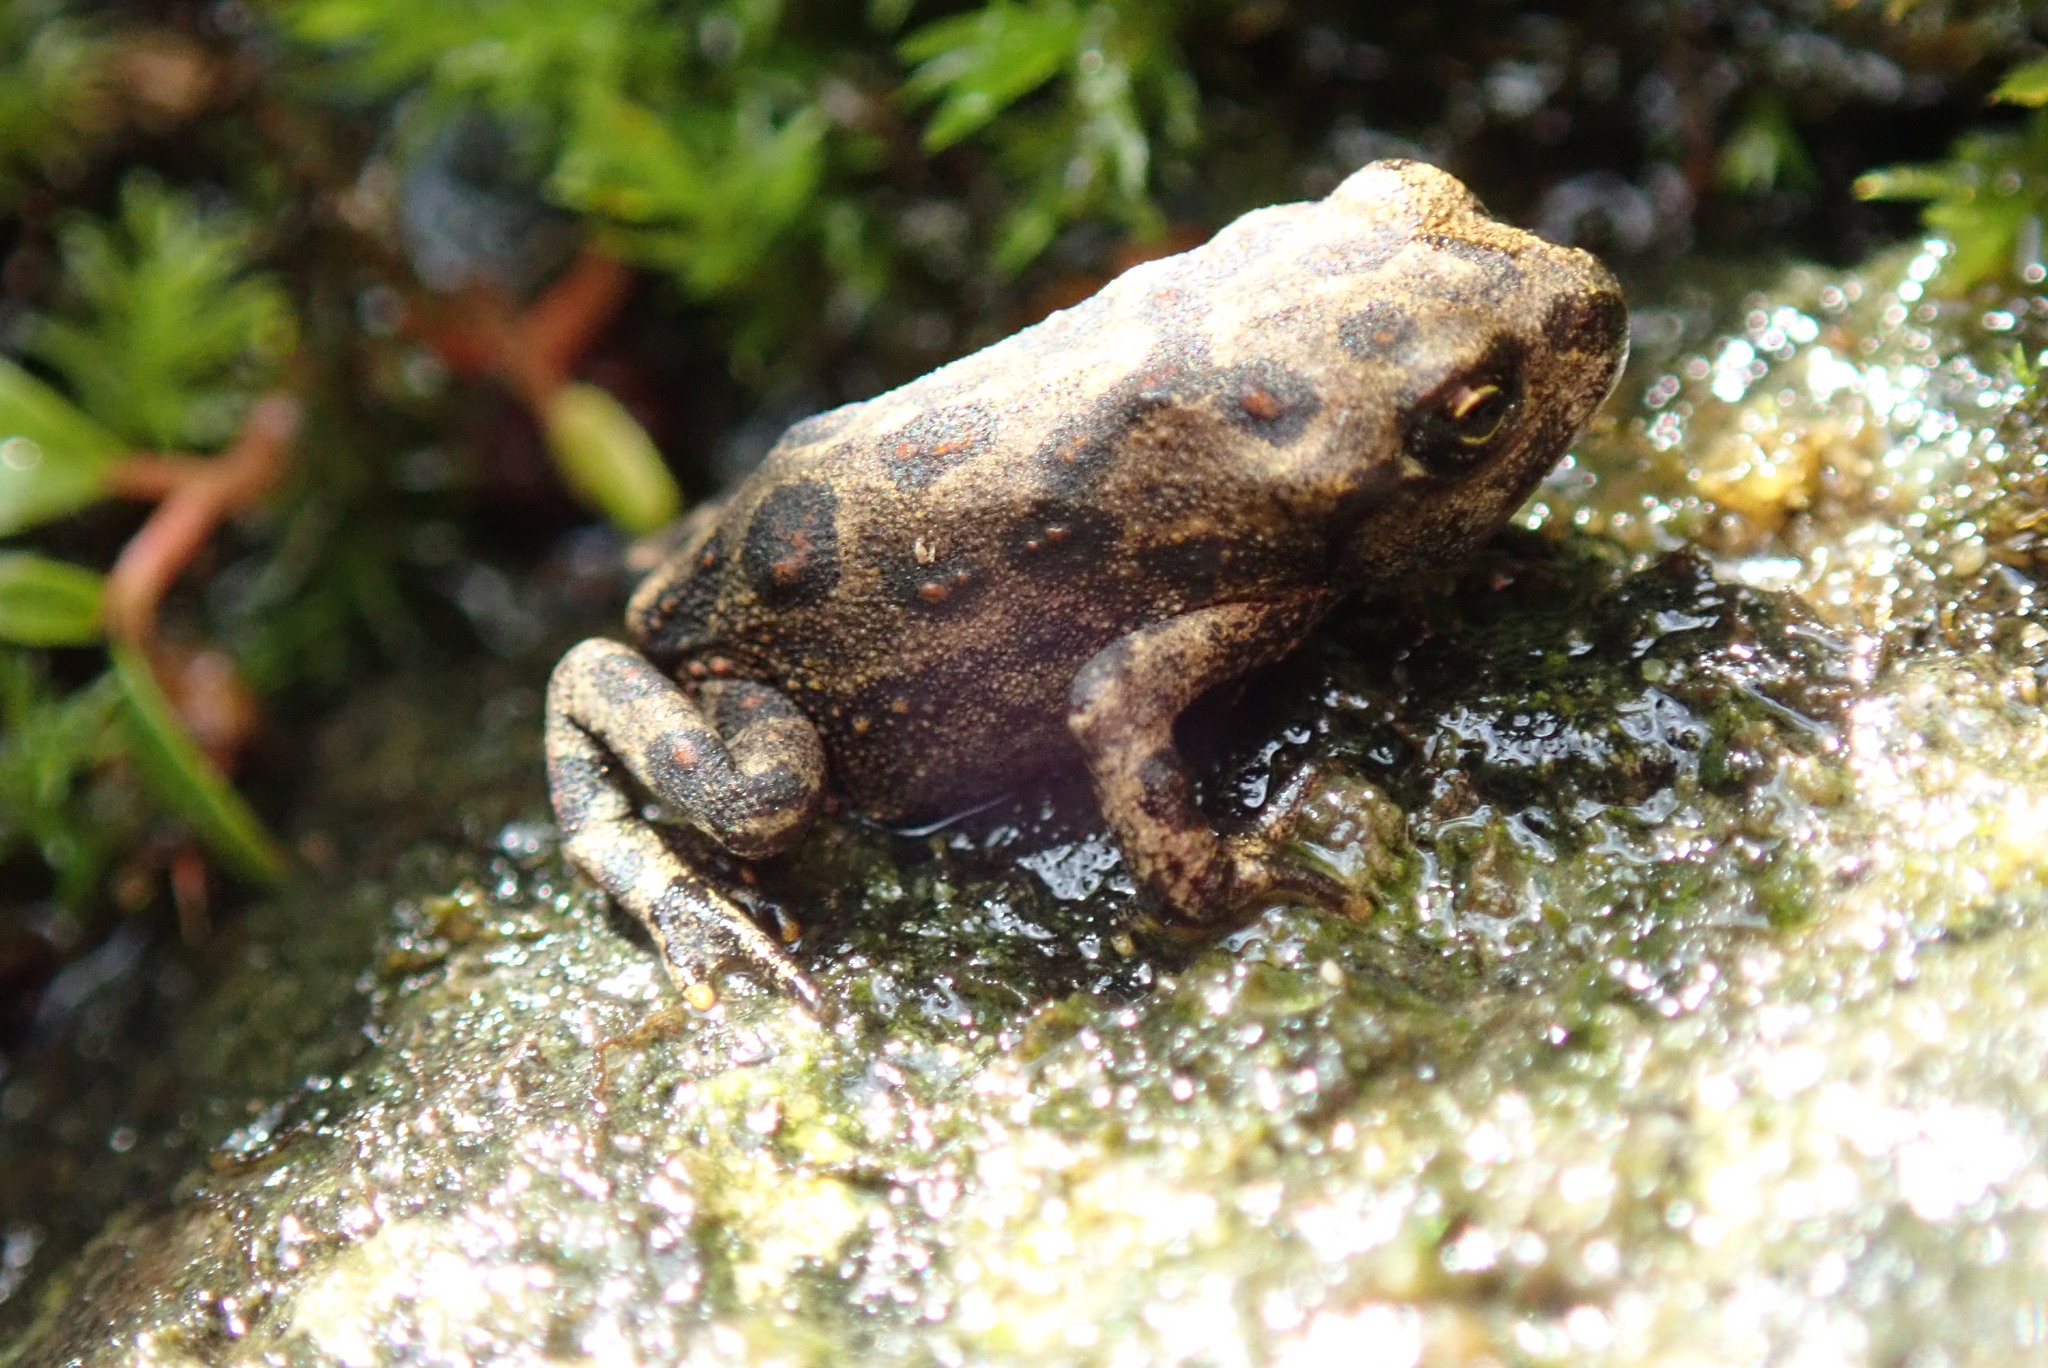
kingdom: Animalia
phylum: Chordata
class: Amphibia
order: Anura
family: Bufonidae
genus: Anaxyrus
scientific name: Anaxyrus boreas
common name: Western toad
